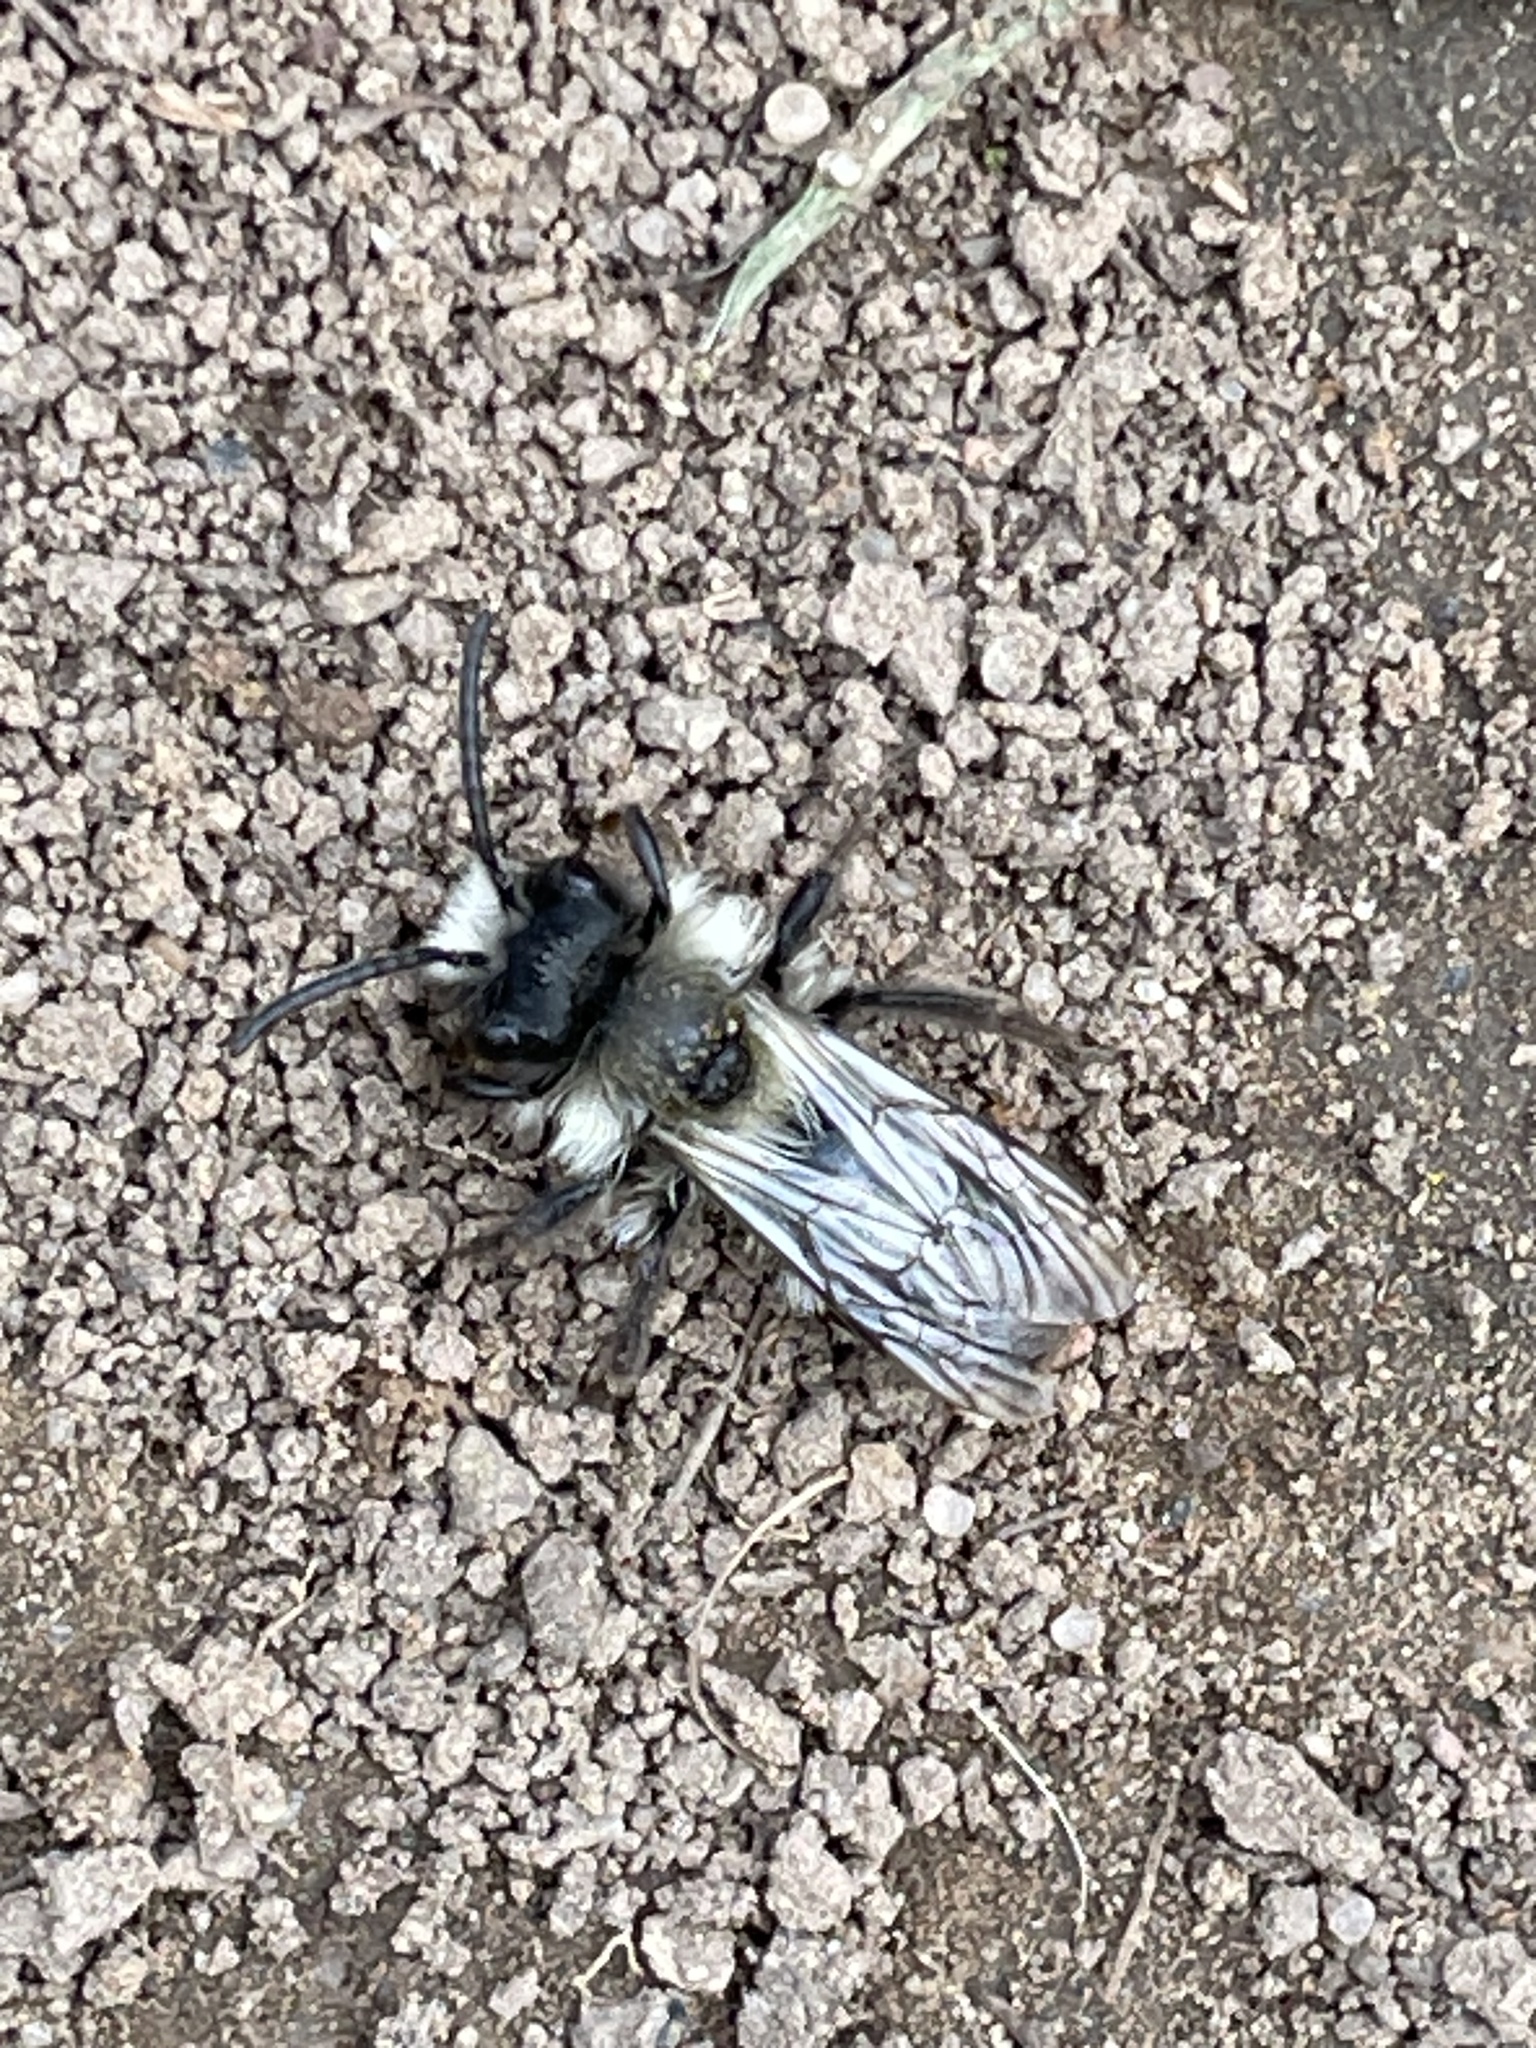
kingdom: Animalia
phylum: Arthropoda
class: Insecta
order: Hymenoptera
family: Andrenidae
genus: Andrena
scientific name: Andrena cineraria
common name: Ashy mining bee
